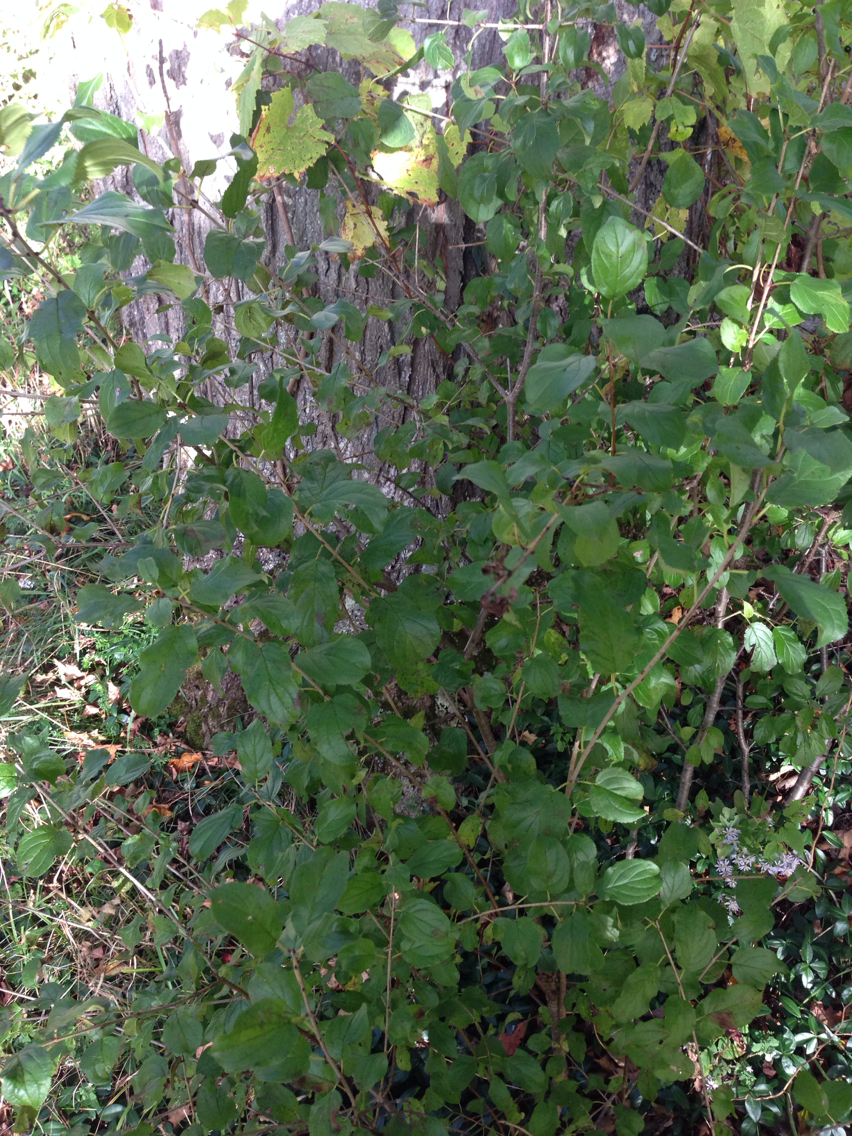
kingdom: Plantae
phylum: Tracheophyta
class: Magnoliopsida
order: Rosales
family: Rhamnaceae
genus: Rhamnus
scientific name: Rhamnus cathartica
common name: Common buckthorn
